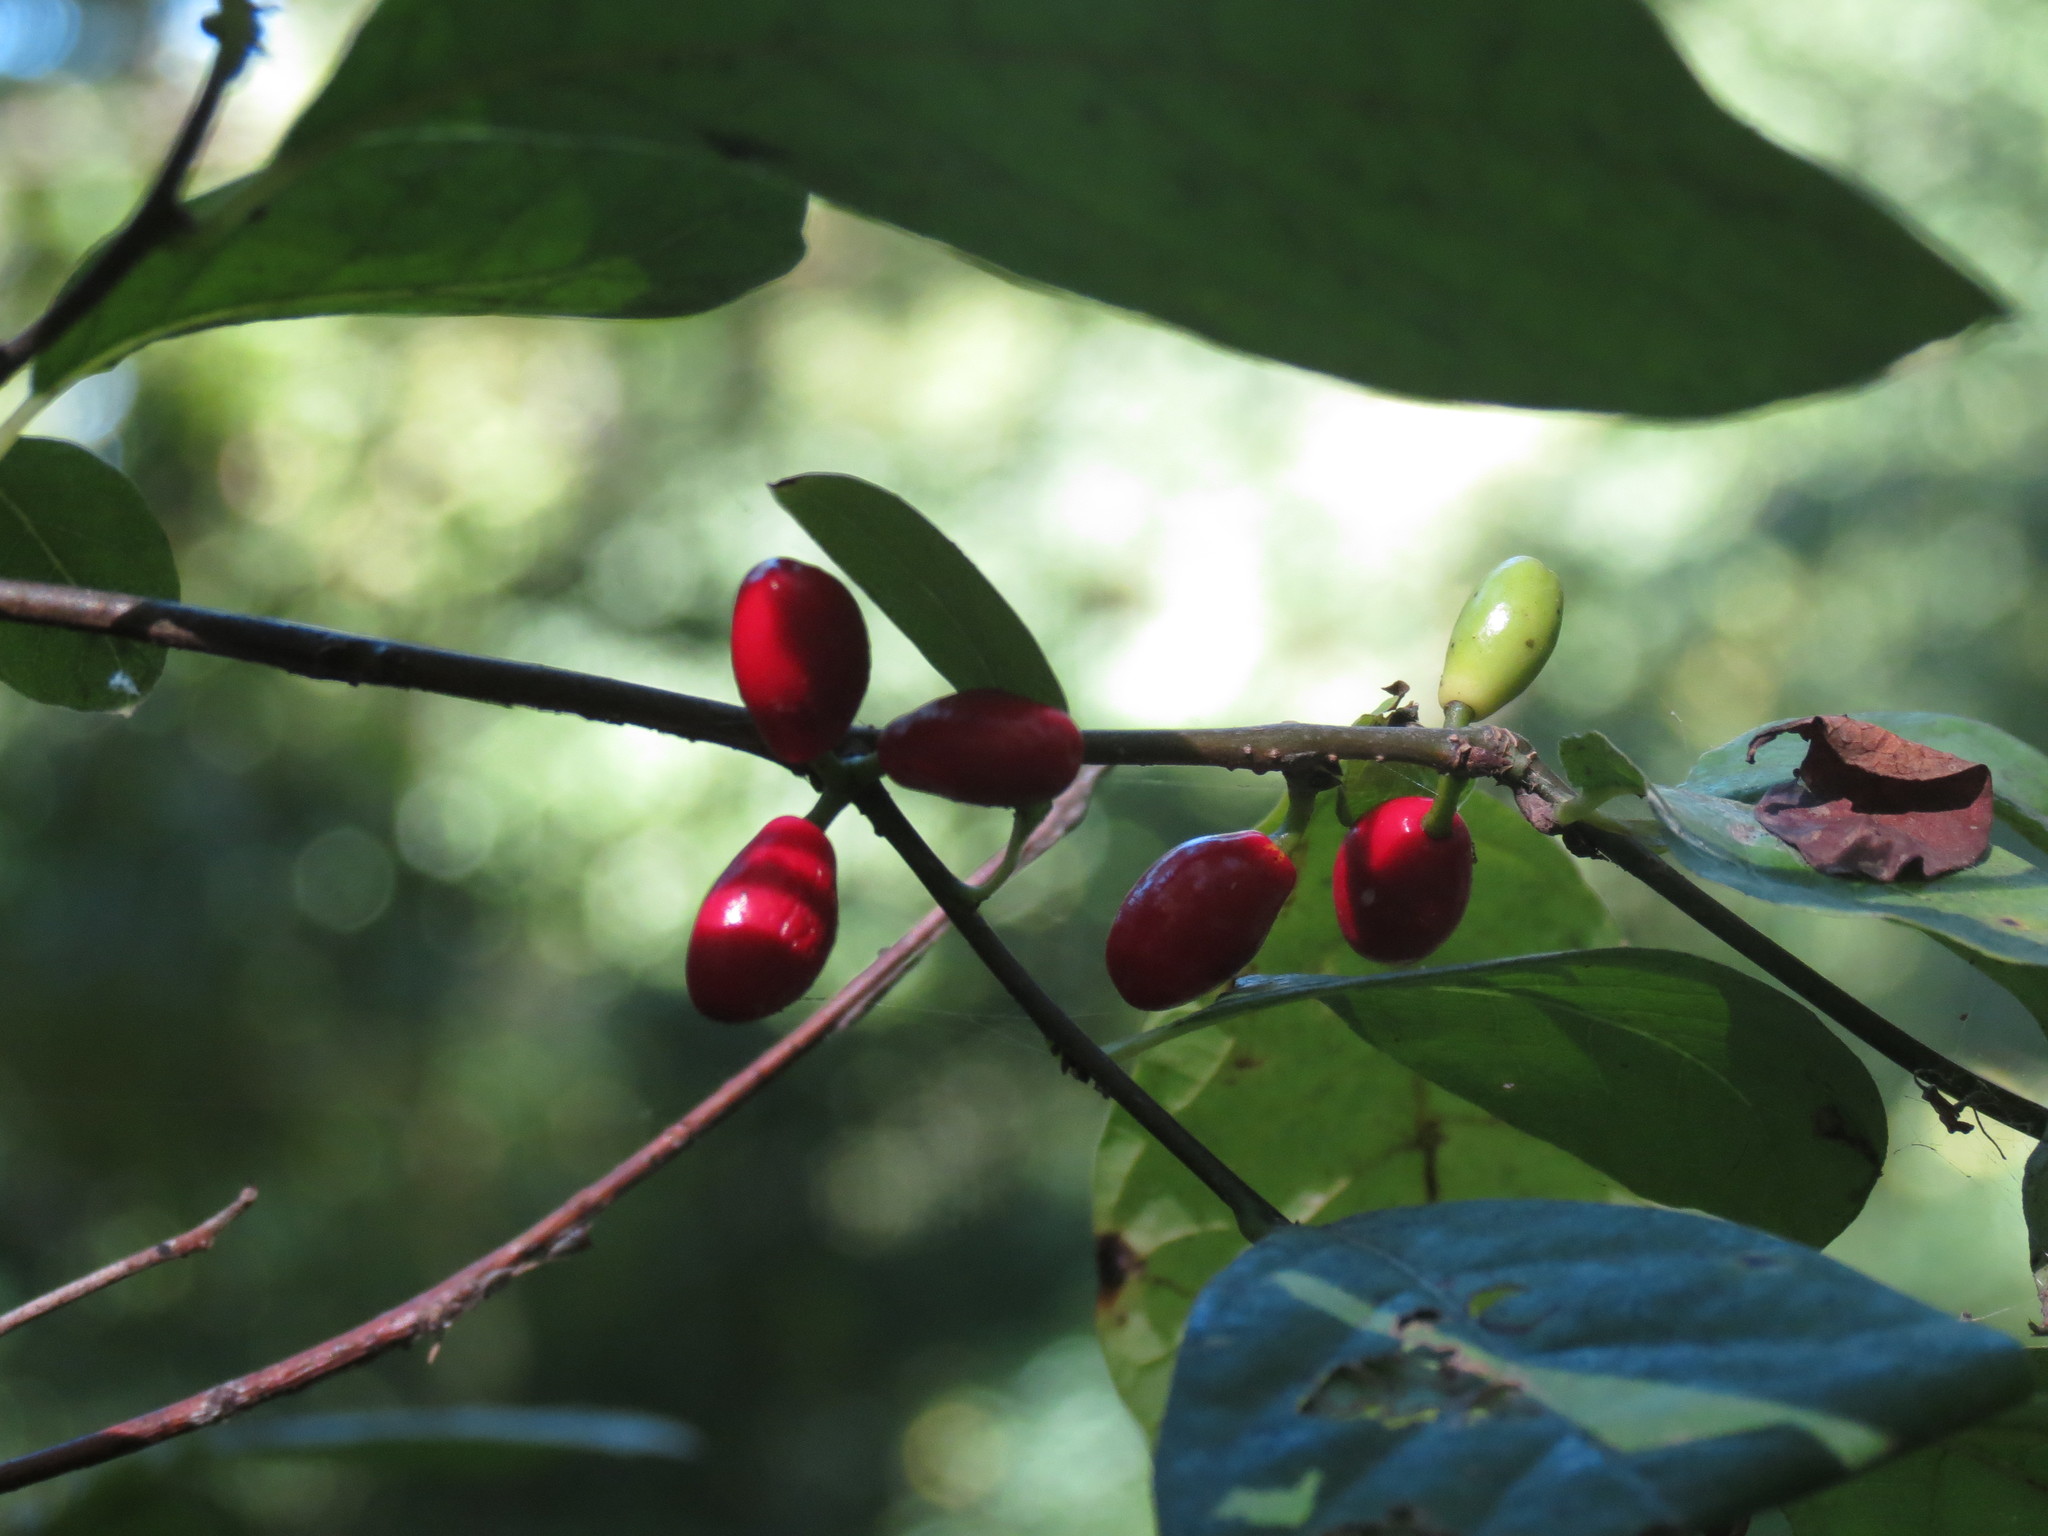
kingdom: Plantae
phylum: Tracheophyta
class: Magnoliopsida
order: Laurales
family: Lauraceae
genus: Lindera
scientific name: Lindera benzoin
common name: Spicebush
